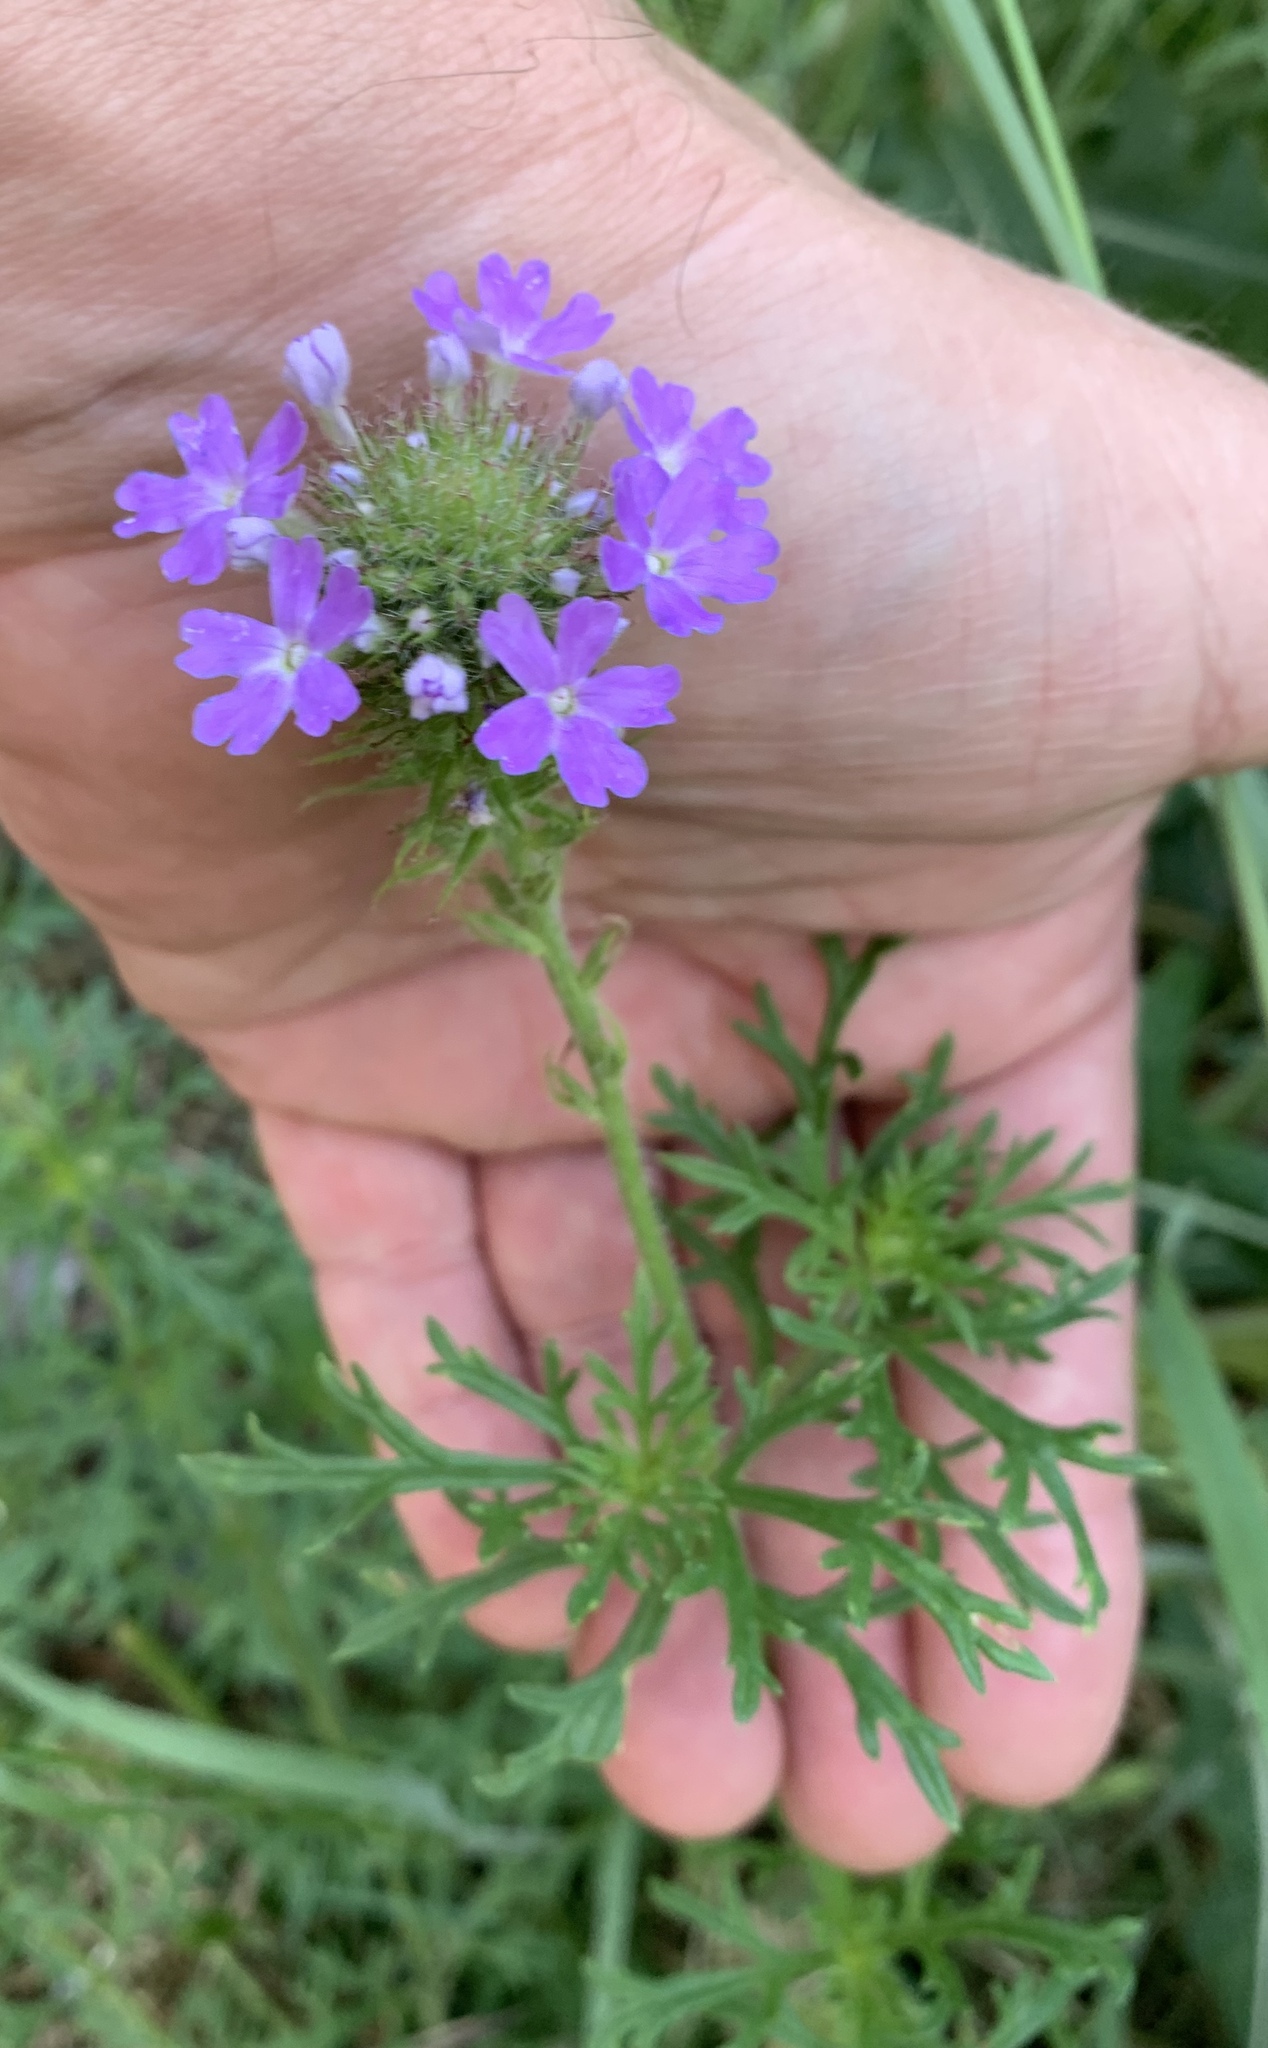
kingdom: Plantae
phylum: Tracheophyta
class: Magnoliopsida
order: Lamiales
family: Verbenaceae
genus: Verbena
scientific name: Verbena bipinnatifida
